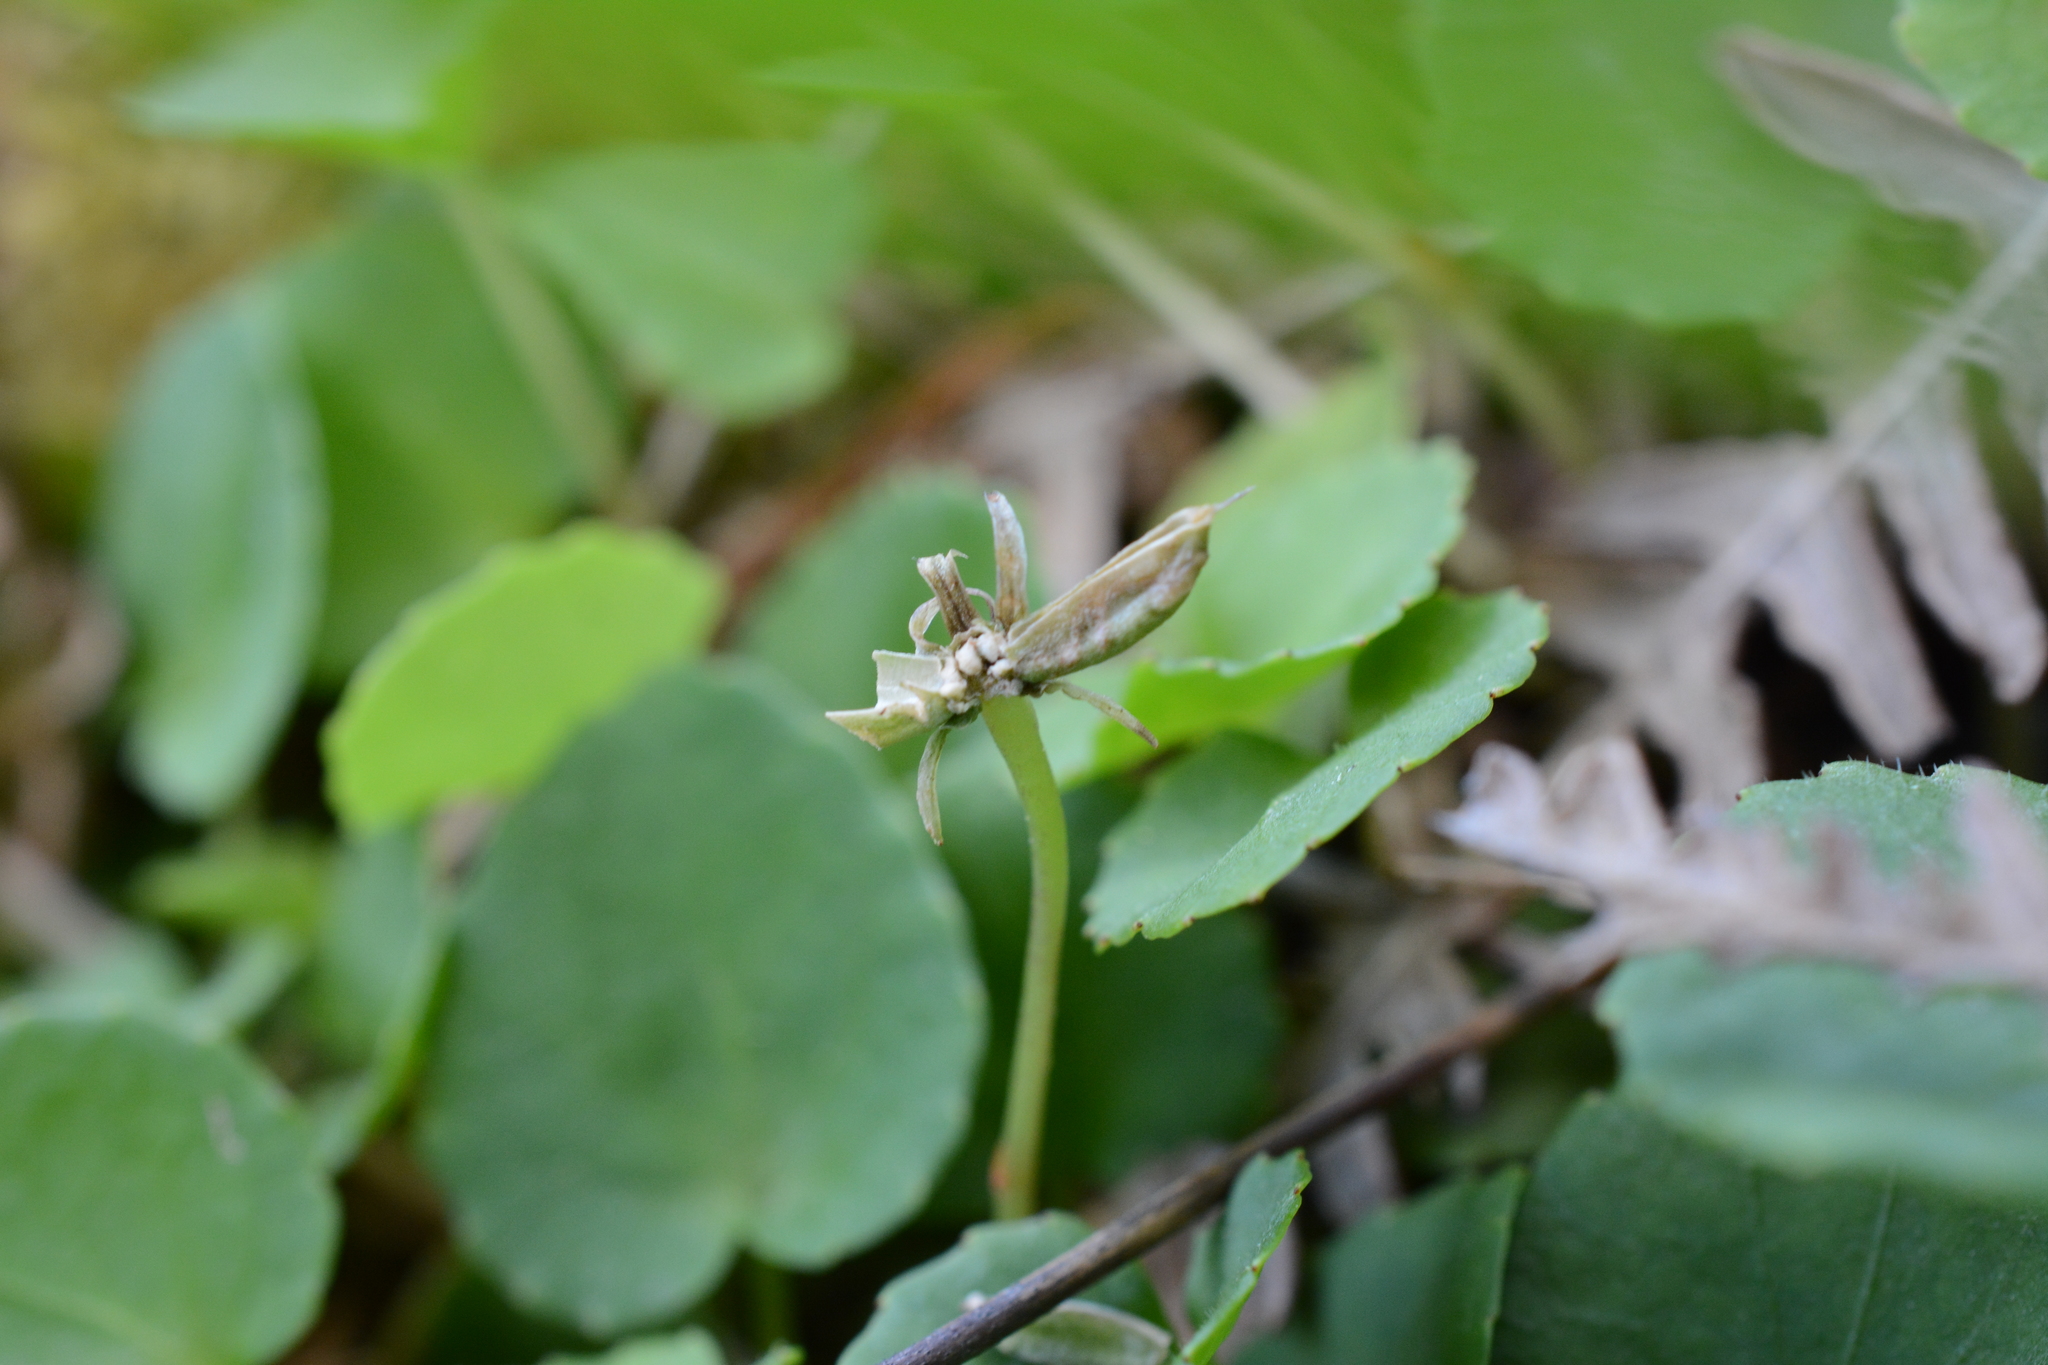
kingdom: Plantae
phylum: Tracheophyta
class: Magnoliopsida
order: Malpighiales
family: Violaceae
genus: Viola
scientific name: Viola sempervirens
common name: Evergreen violet
